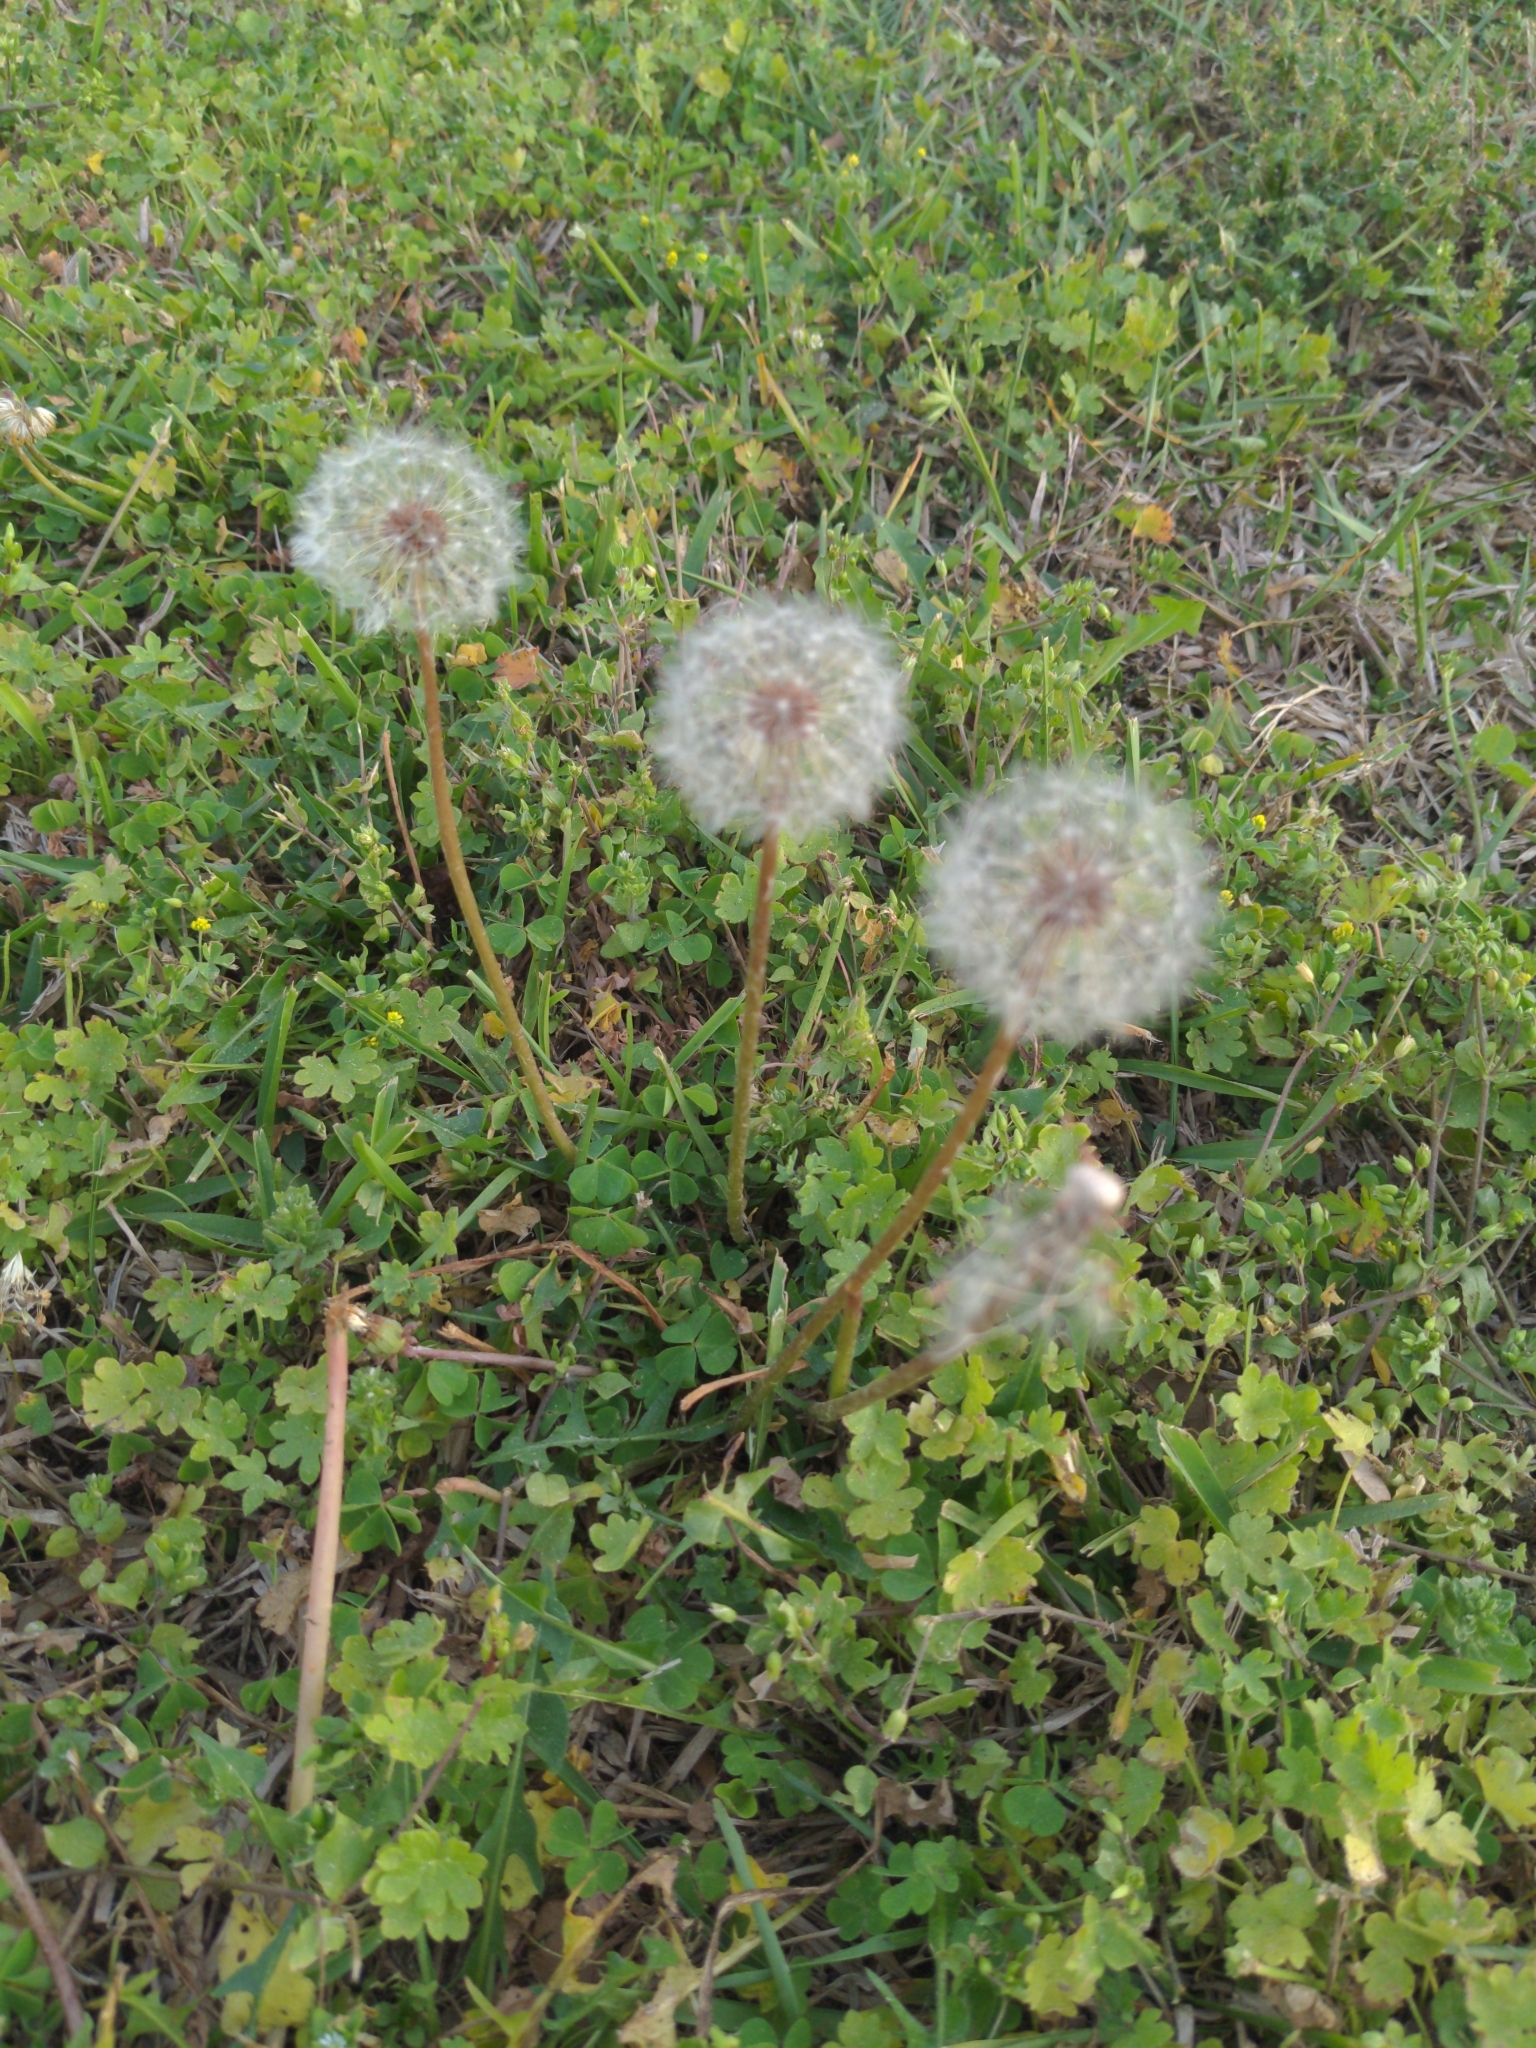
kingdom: Plantae
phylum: Tracheophyta
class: Magnoliopsida
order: Asterales
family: Asteraceae
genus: Taraxacum
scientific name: Taraxacum officinale
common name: Common dandelion
